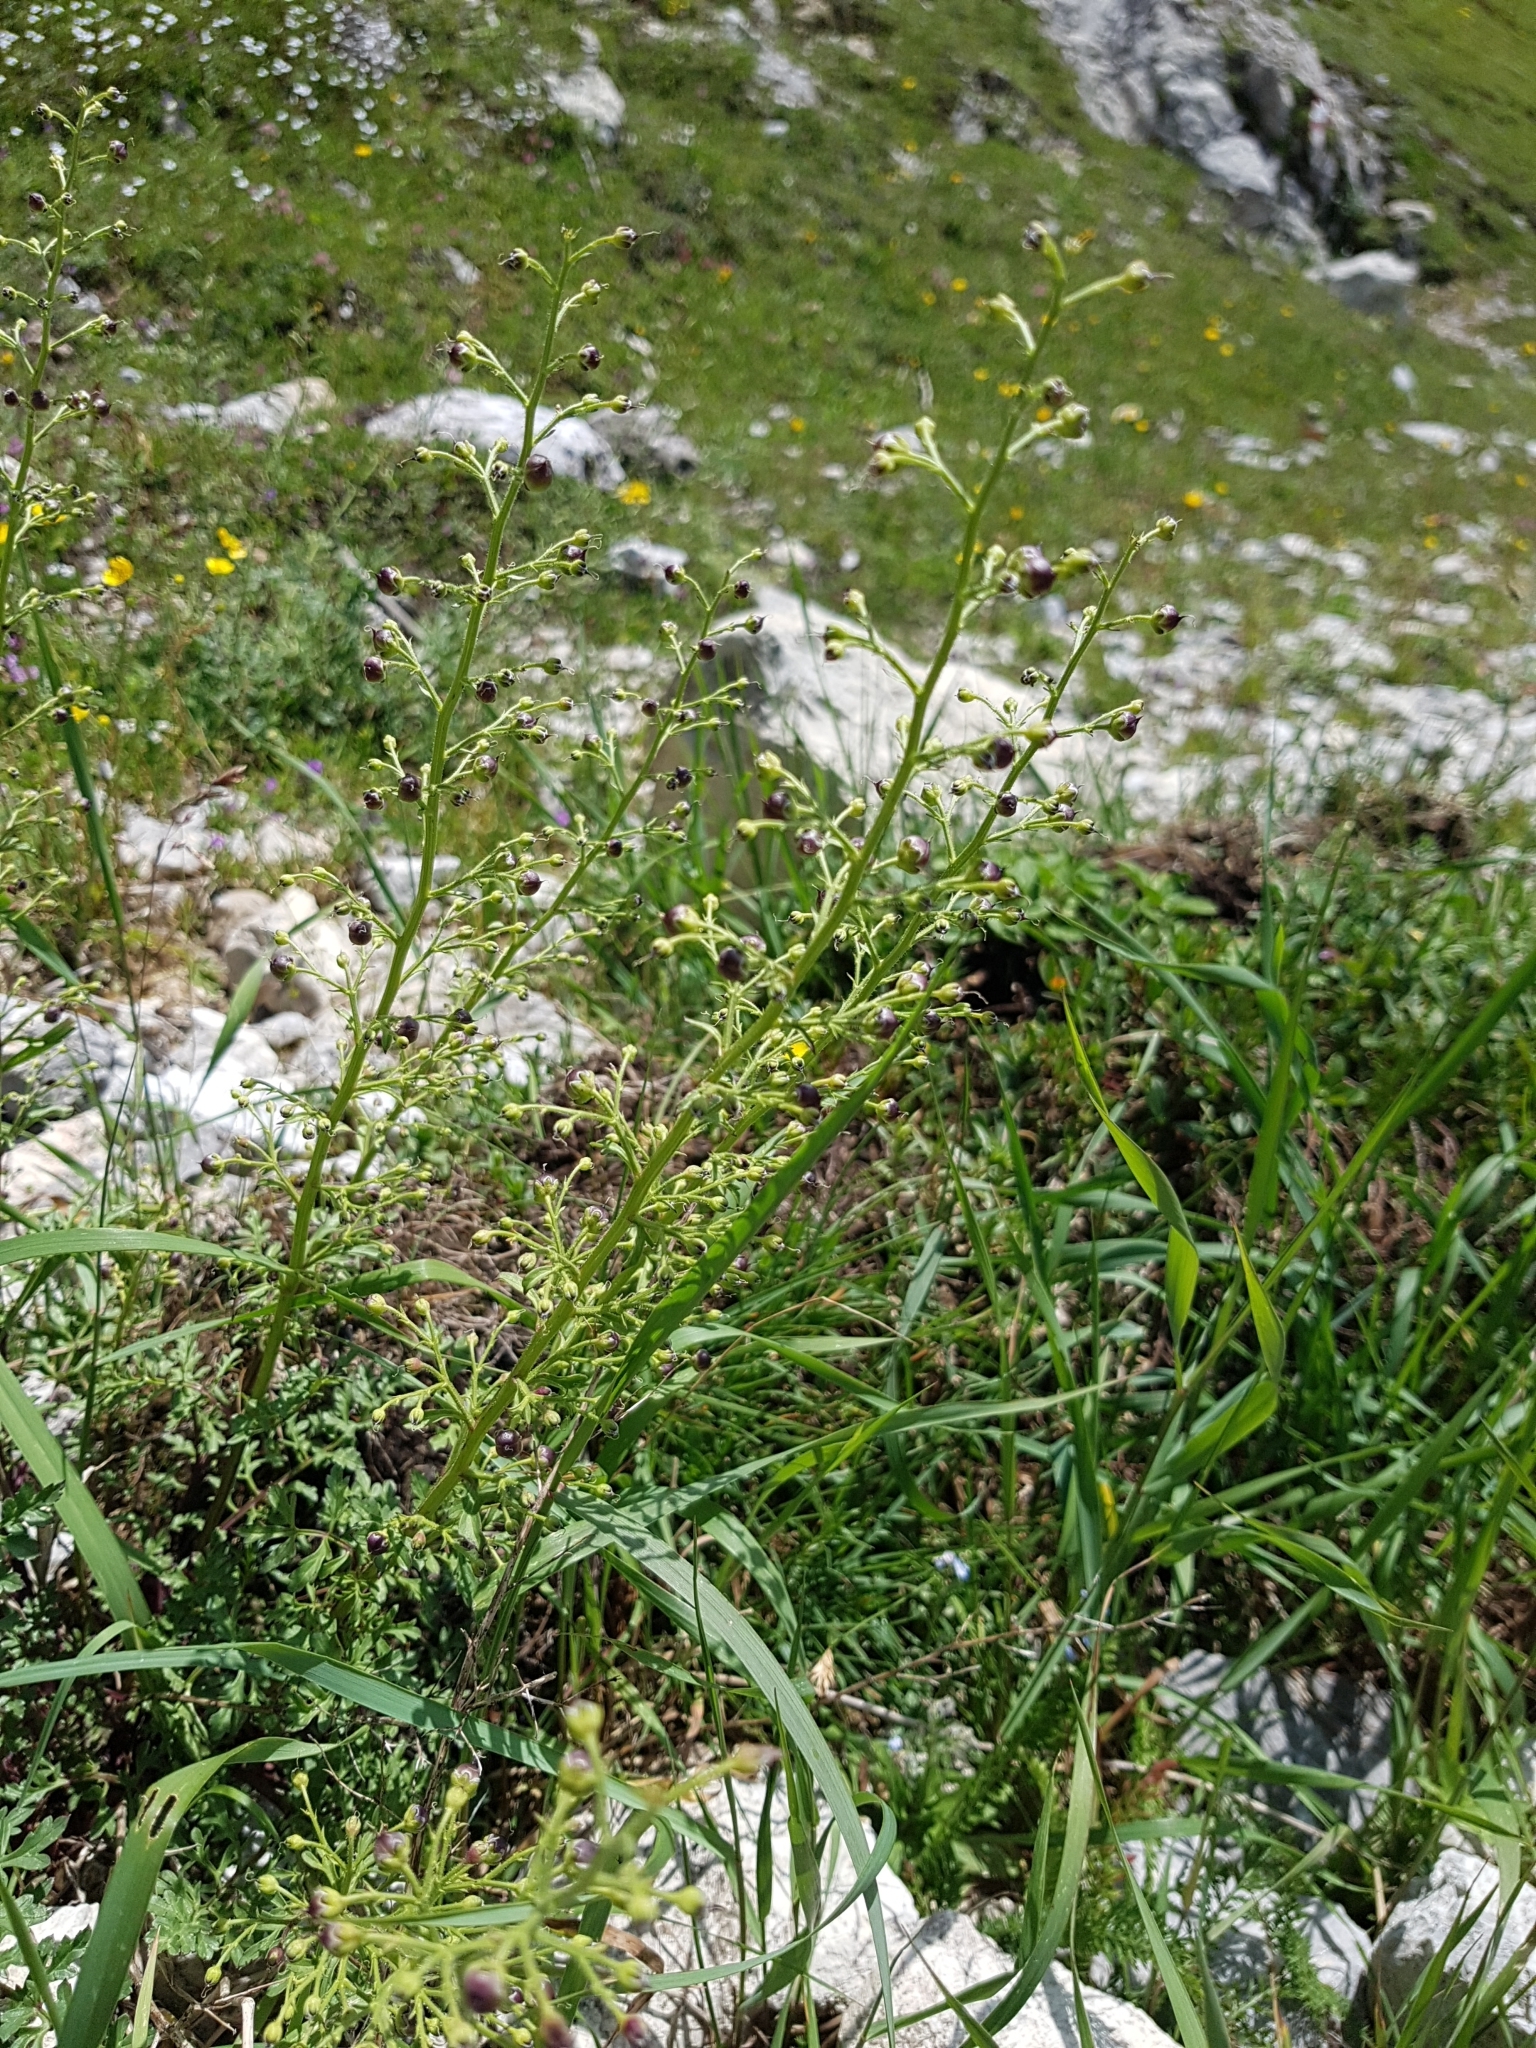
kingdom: Plantae
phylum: Tracheophyta
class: Magnoliopsida
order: Lamiales
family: Scrophulariaceae
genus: Scrophularia
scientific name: Scrophularia canina
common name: French figwort
